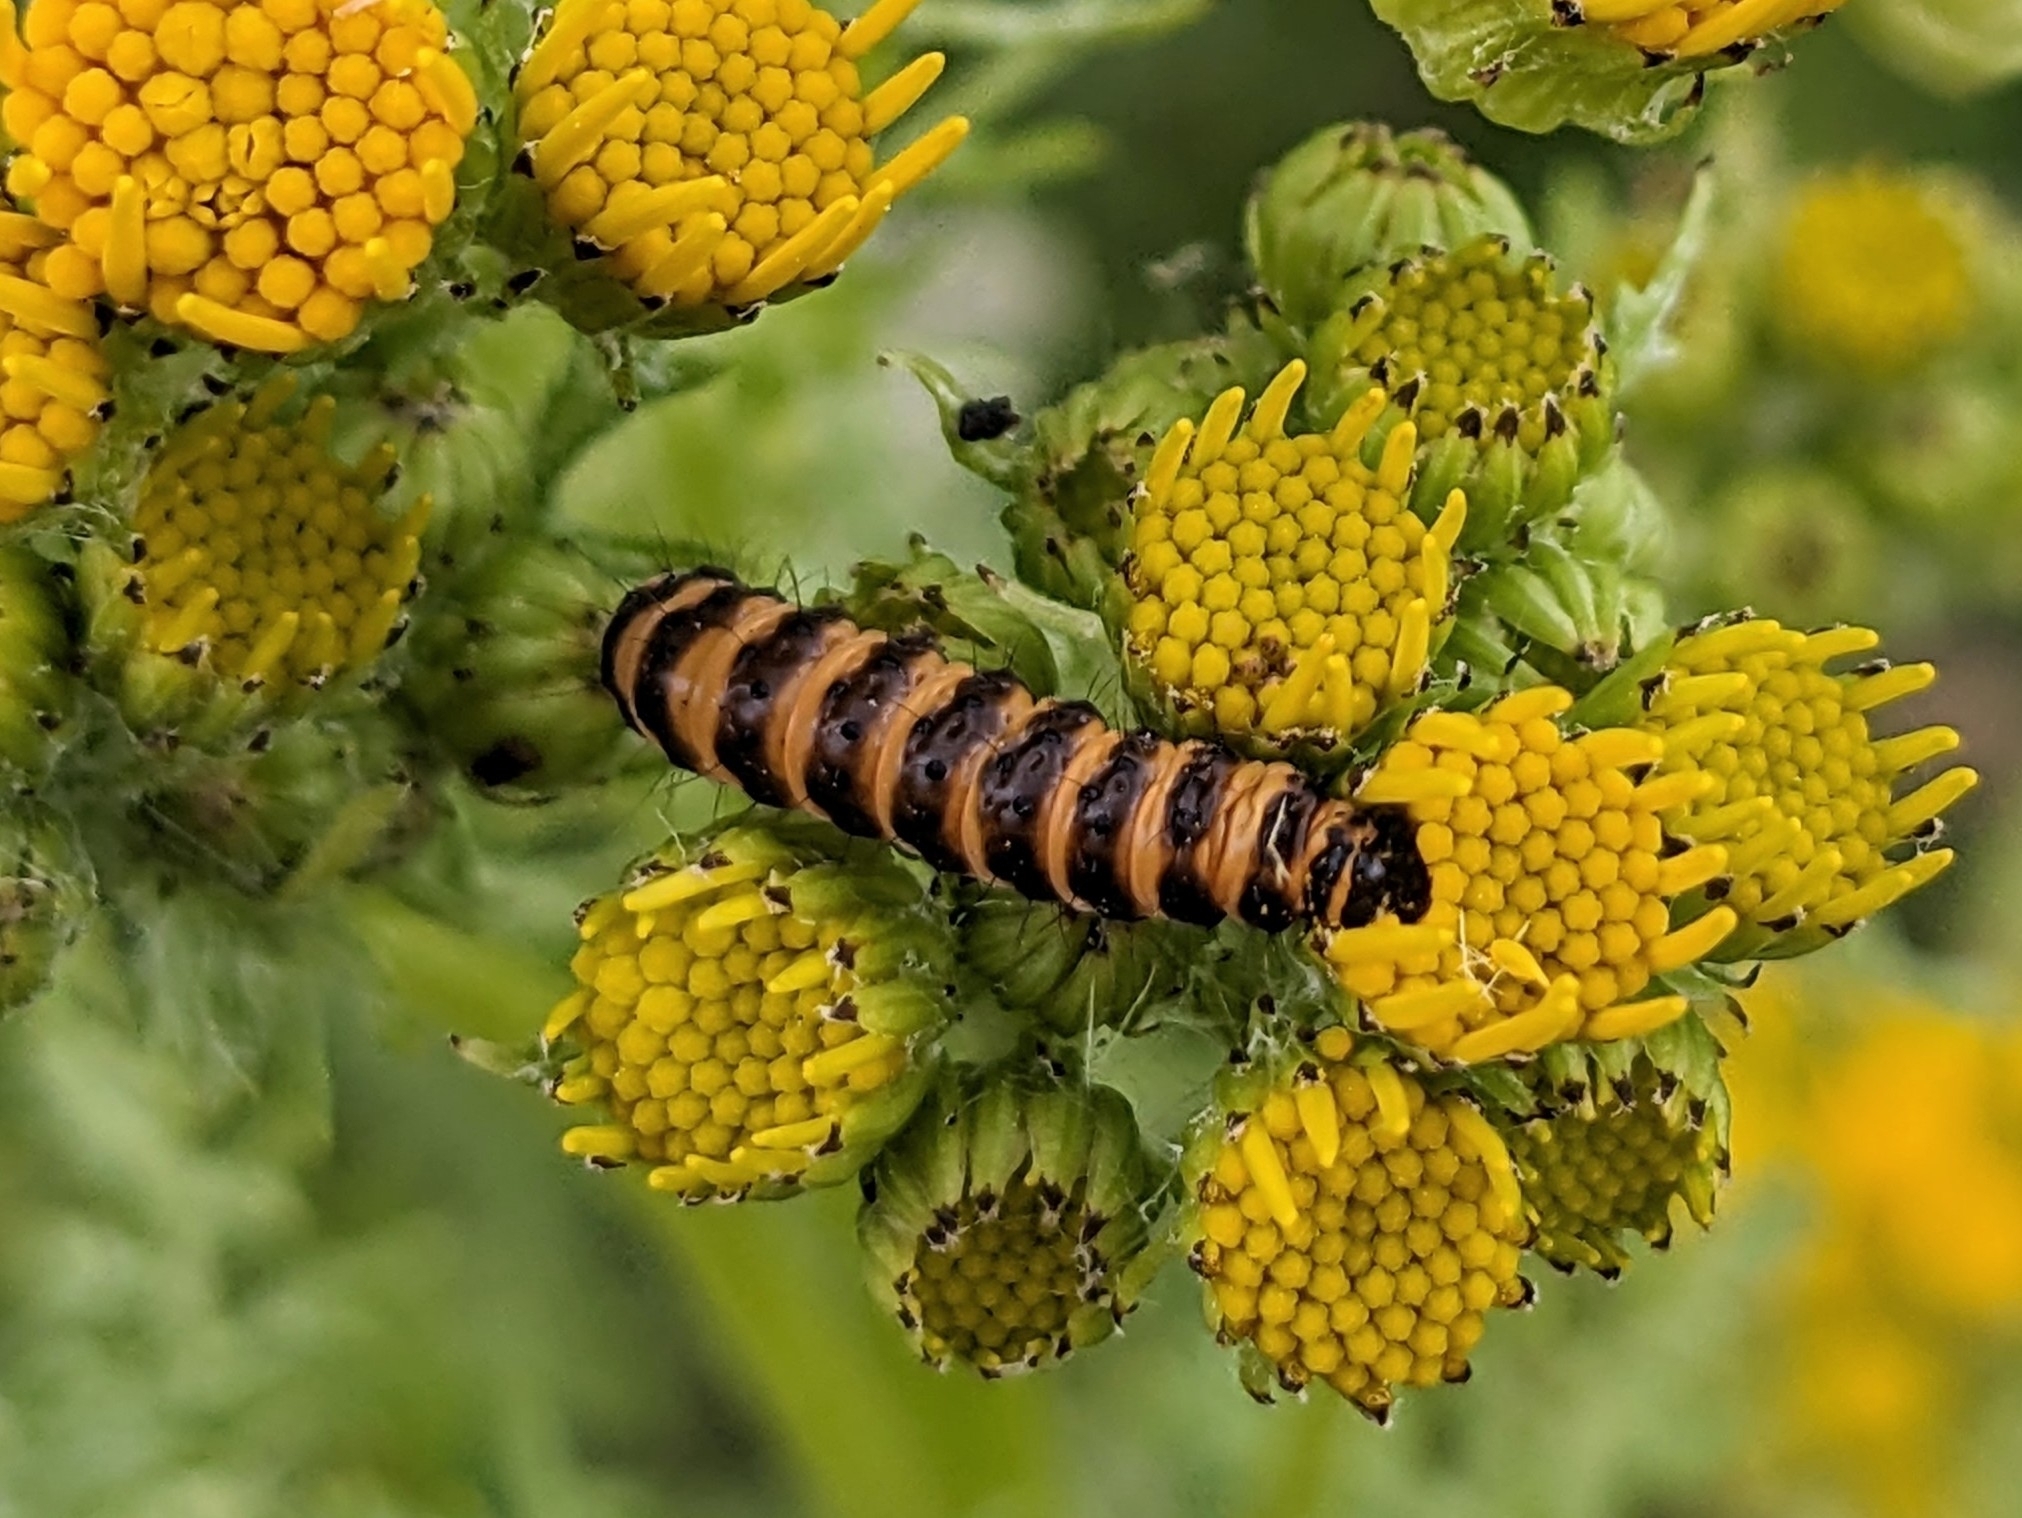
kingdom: Animalia
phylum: Arthropoda
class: Insecta
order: Lepidoptera
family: Erebidae
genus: Tyria
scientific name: Tyria jacobaeae
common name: Cinnabar
